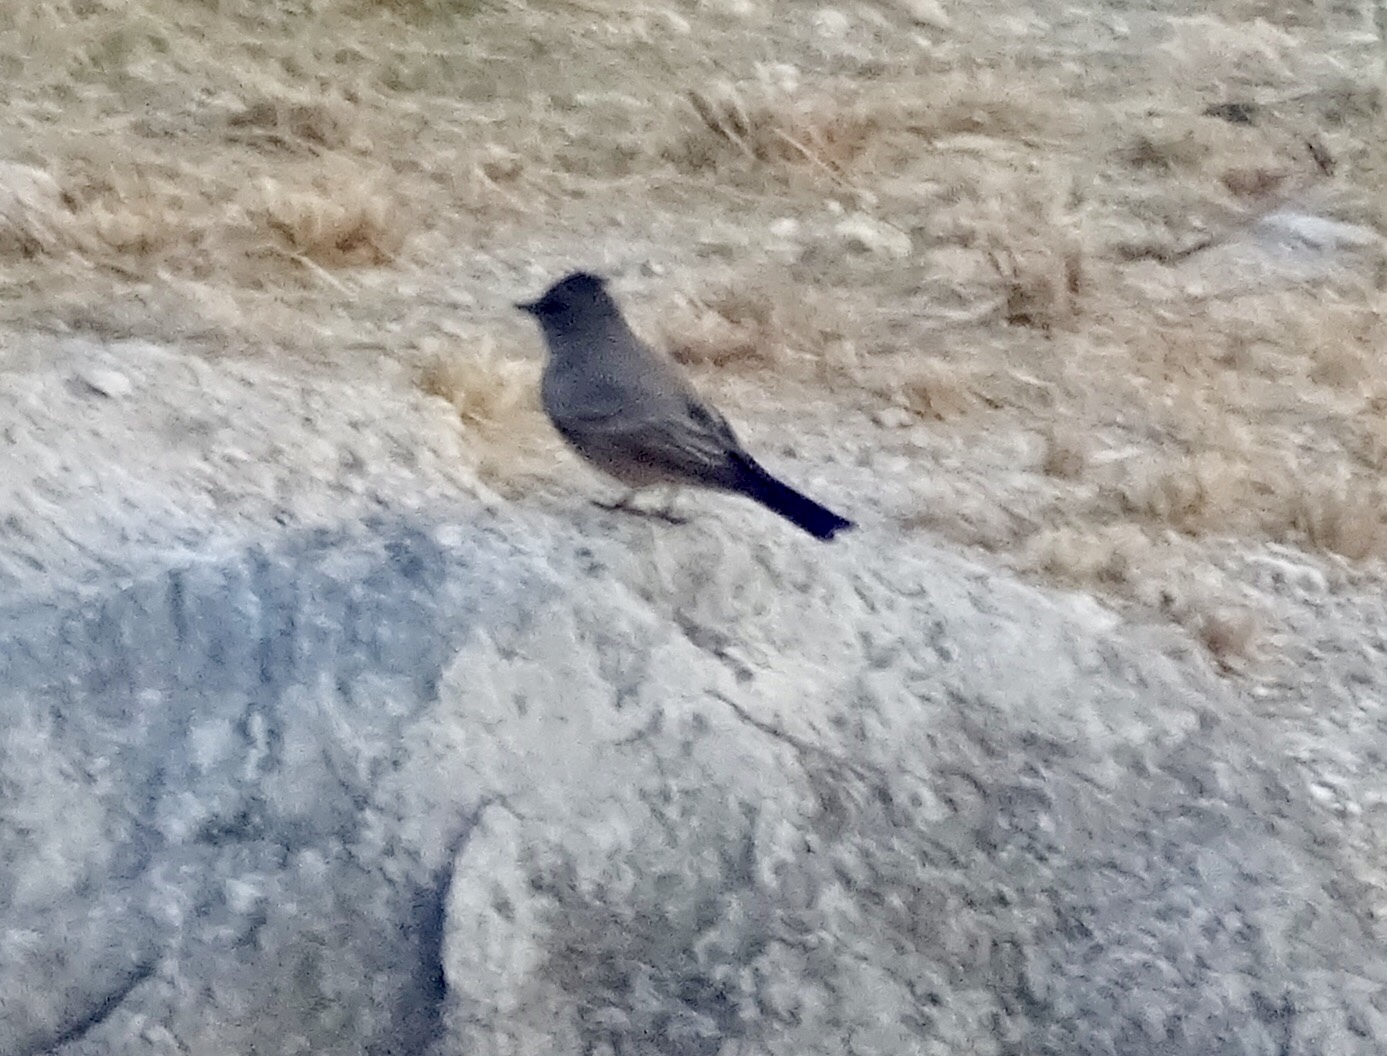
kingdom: Animalia
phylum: Chordata
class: Aves
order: Passeriformes
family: Tyrannidae
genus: Sayornis
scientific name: Sayornis nigricans
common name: Black phoebe
